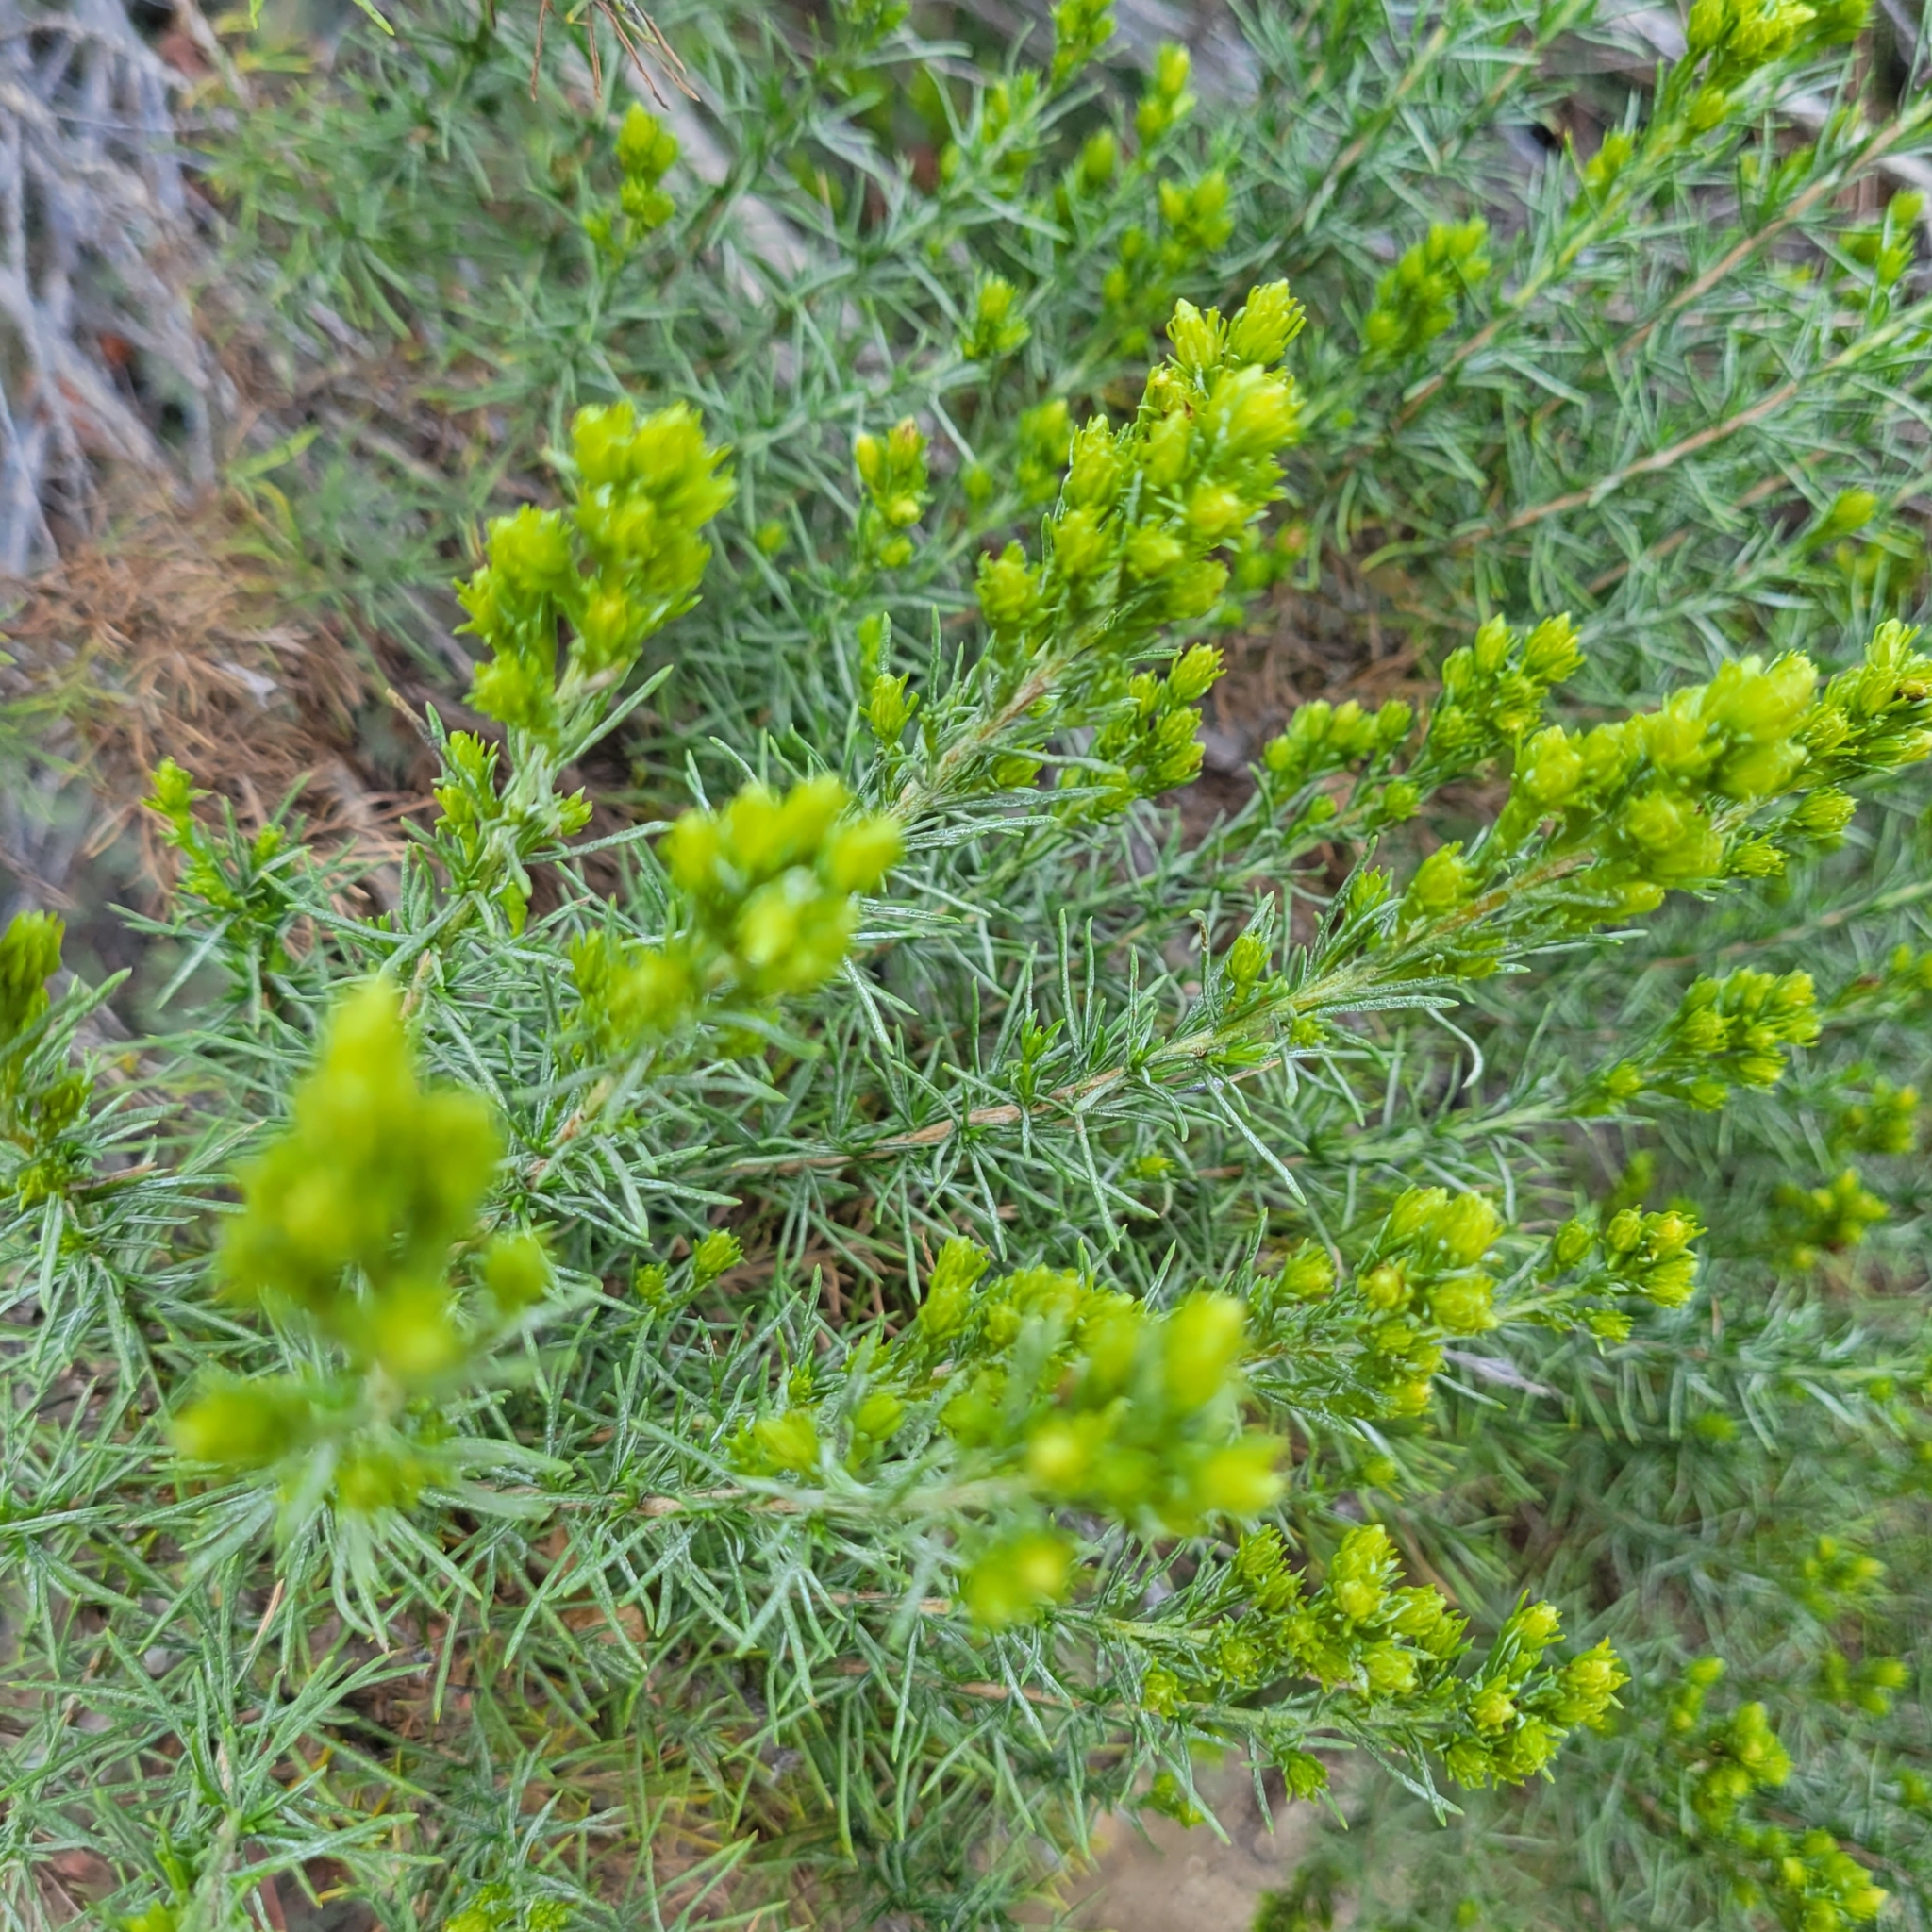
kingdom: Plantae
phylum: Tracheophyta
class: Magnoliopsida
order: Asterales
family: Asteraceae
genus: Ericameria
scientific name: Ericameria pinifolia
